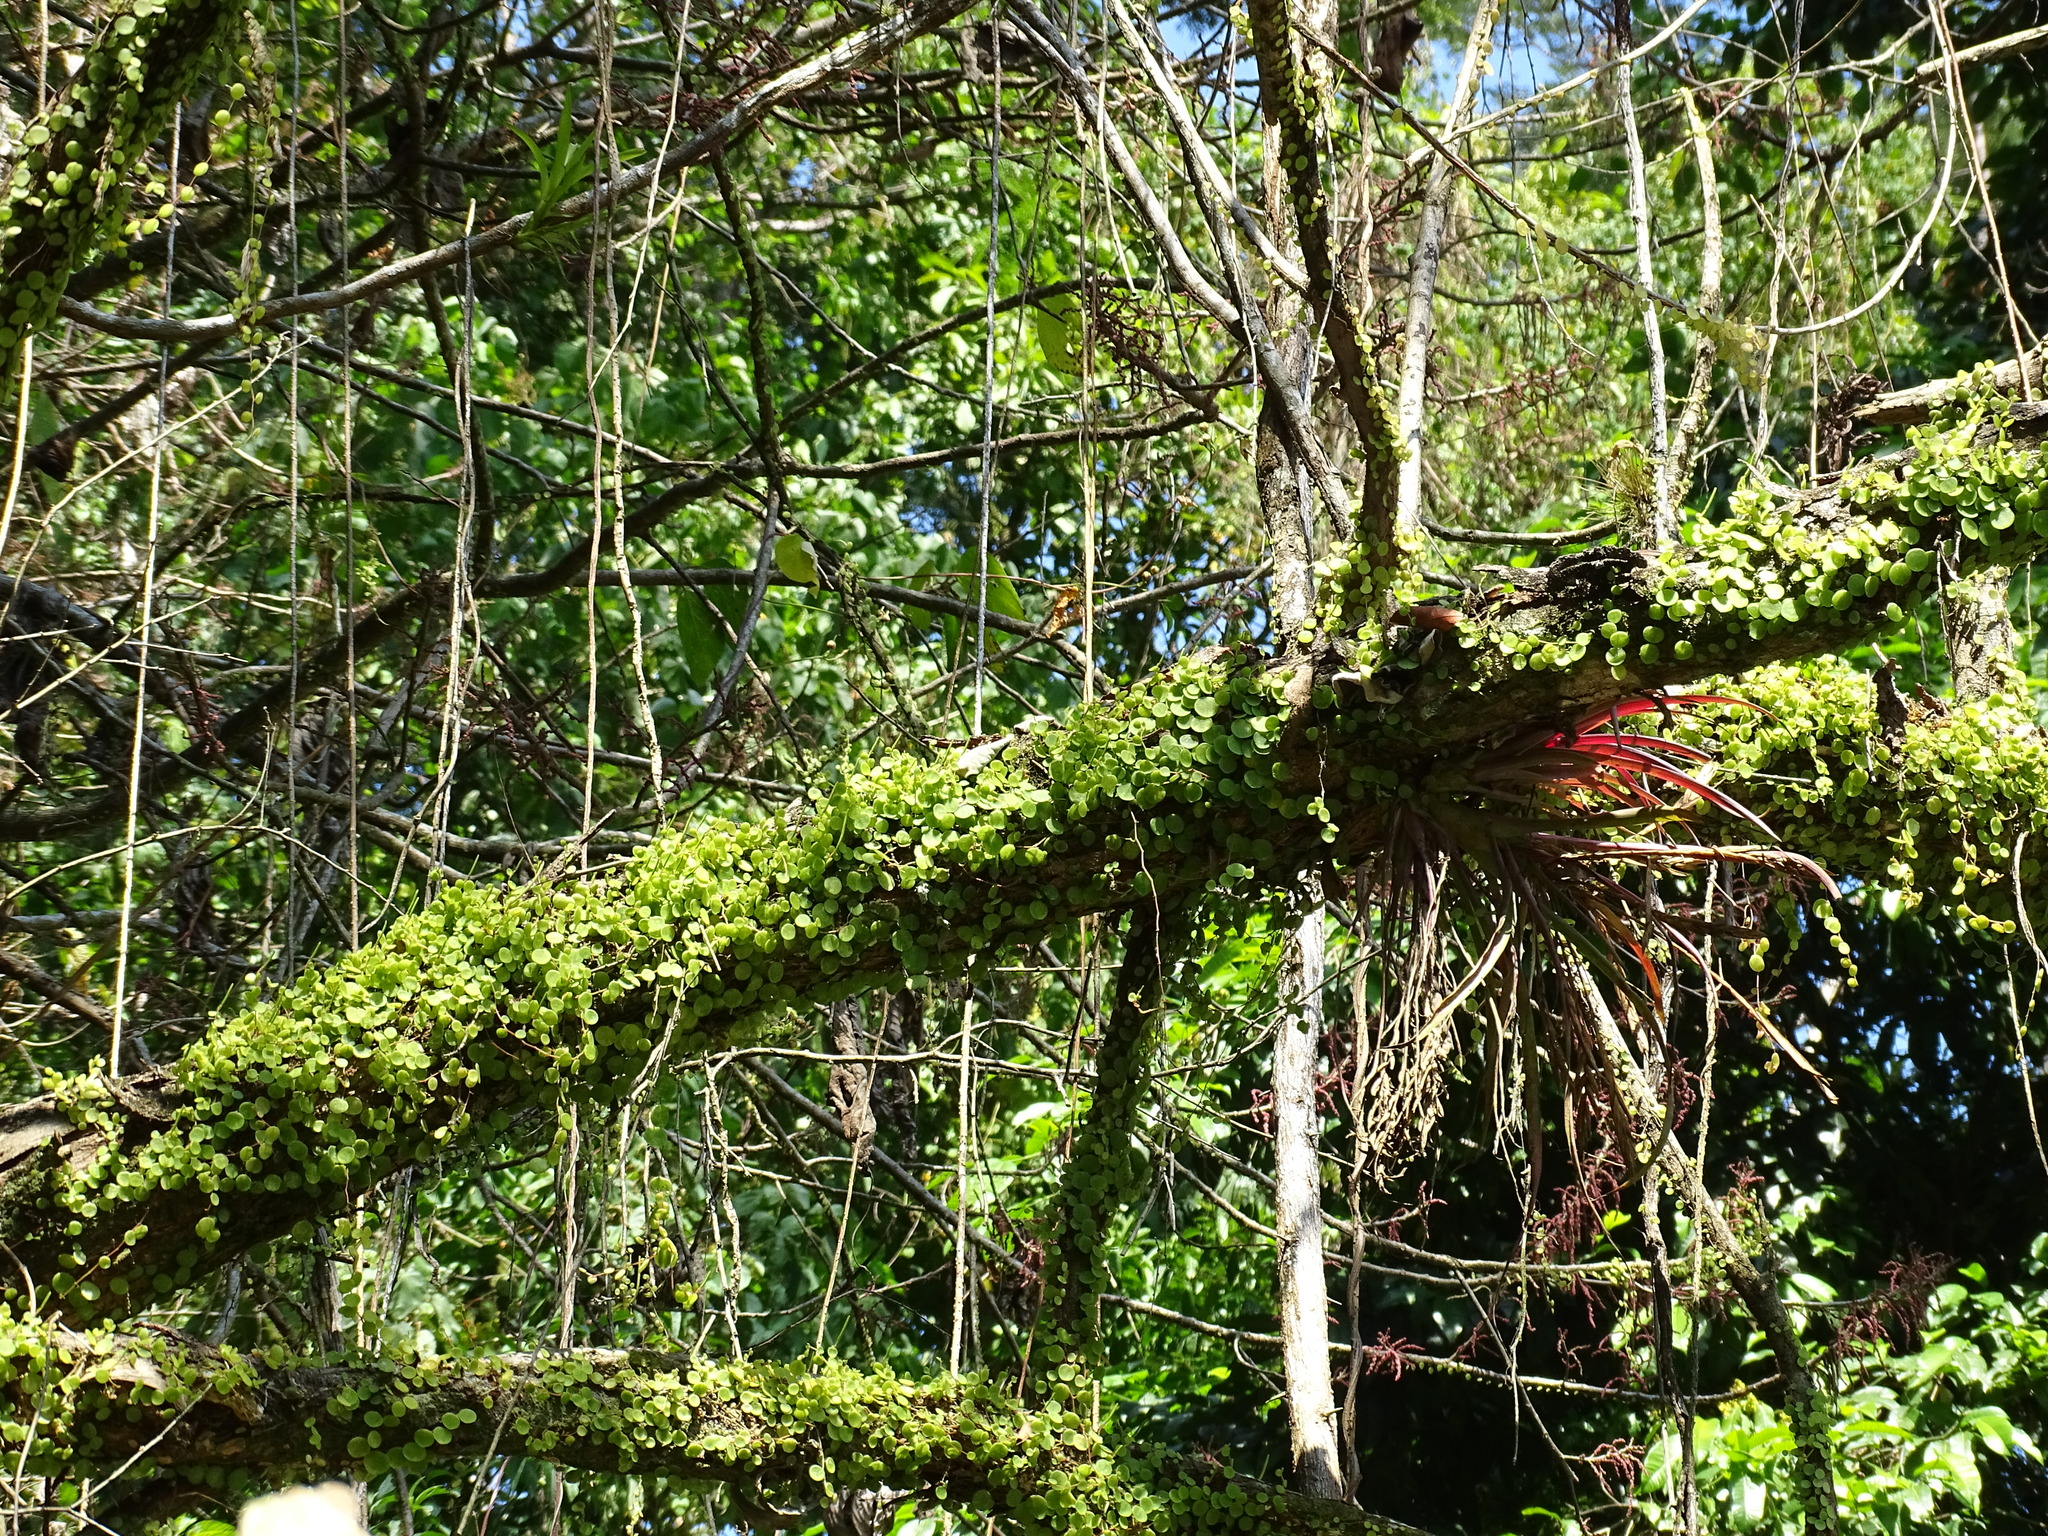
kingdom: Plantae
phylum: Tracheophyta
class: Magnoliopsida
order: Piperales
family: Piperaceae
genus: Peperomia
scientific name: Peperomia rotundifolia
